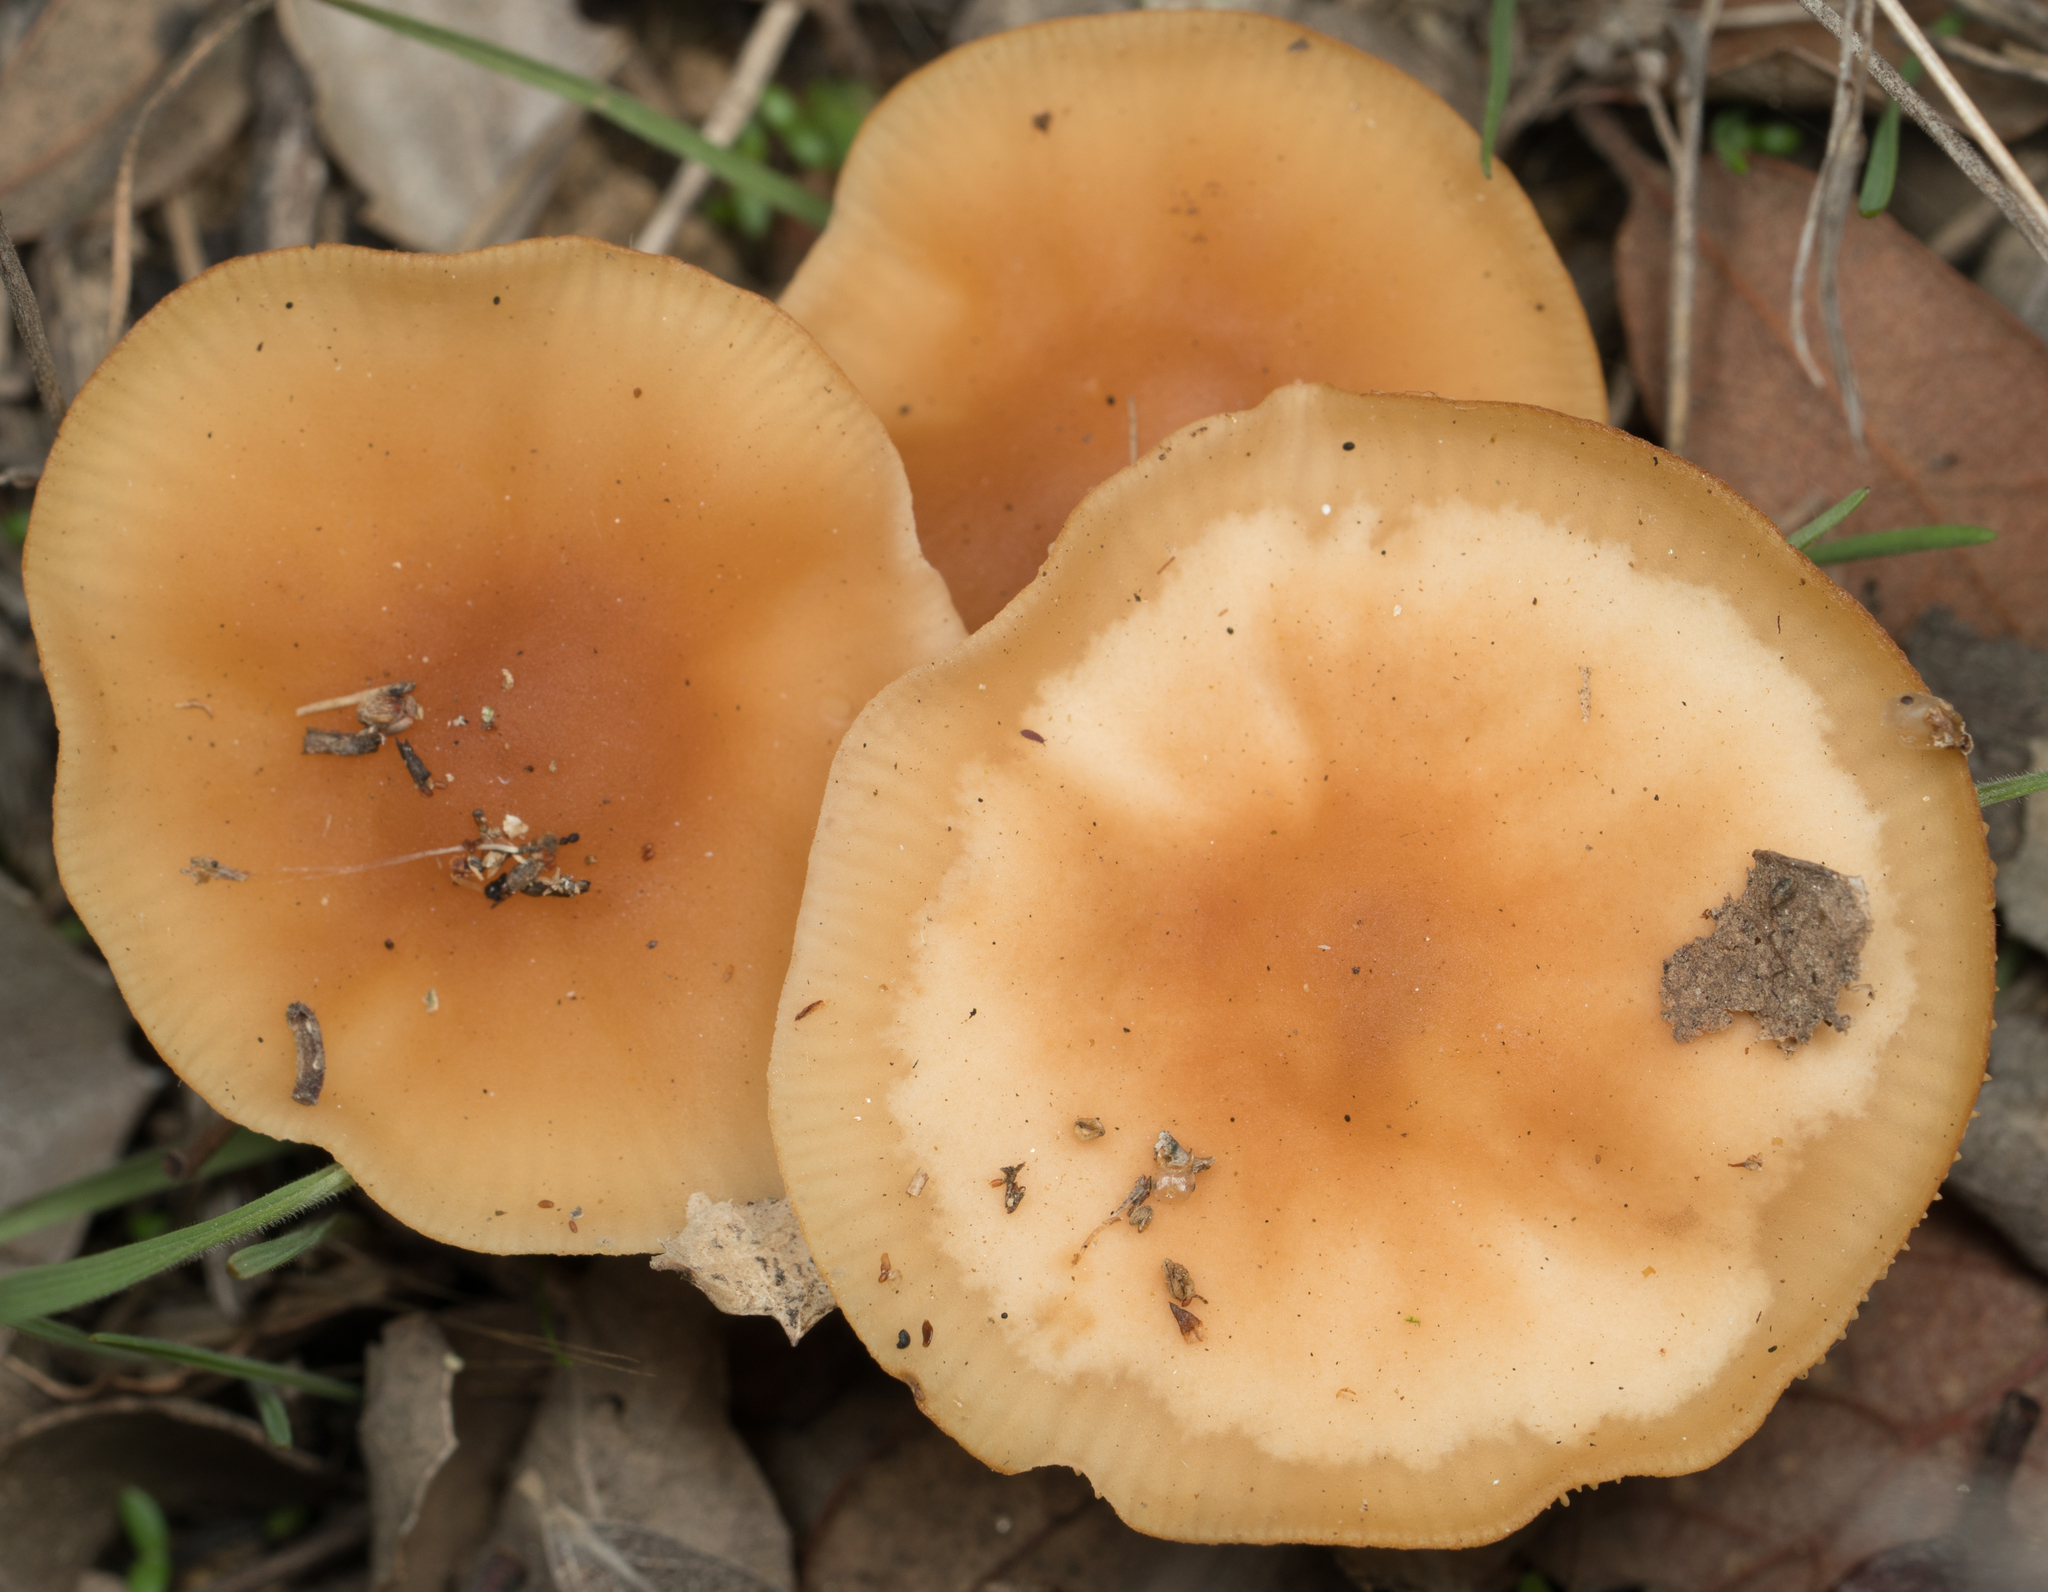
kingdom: Fungi
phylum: Basidiomycota
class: Agaricomycetes
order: Agaricales
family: Omphalotaceae
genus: Gymnopus
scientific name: Gymnopus dryophilus
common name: Penny top
